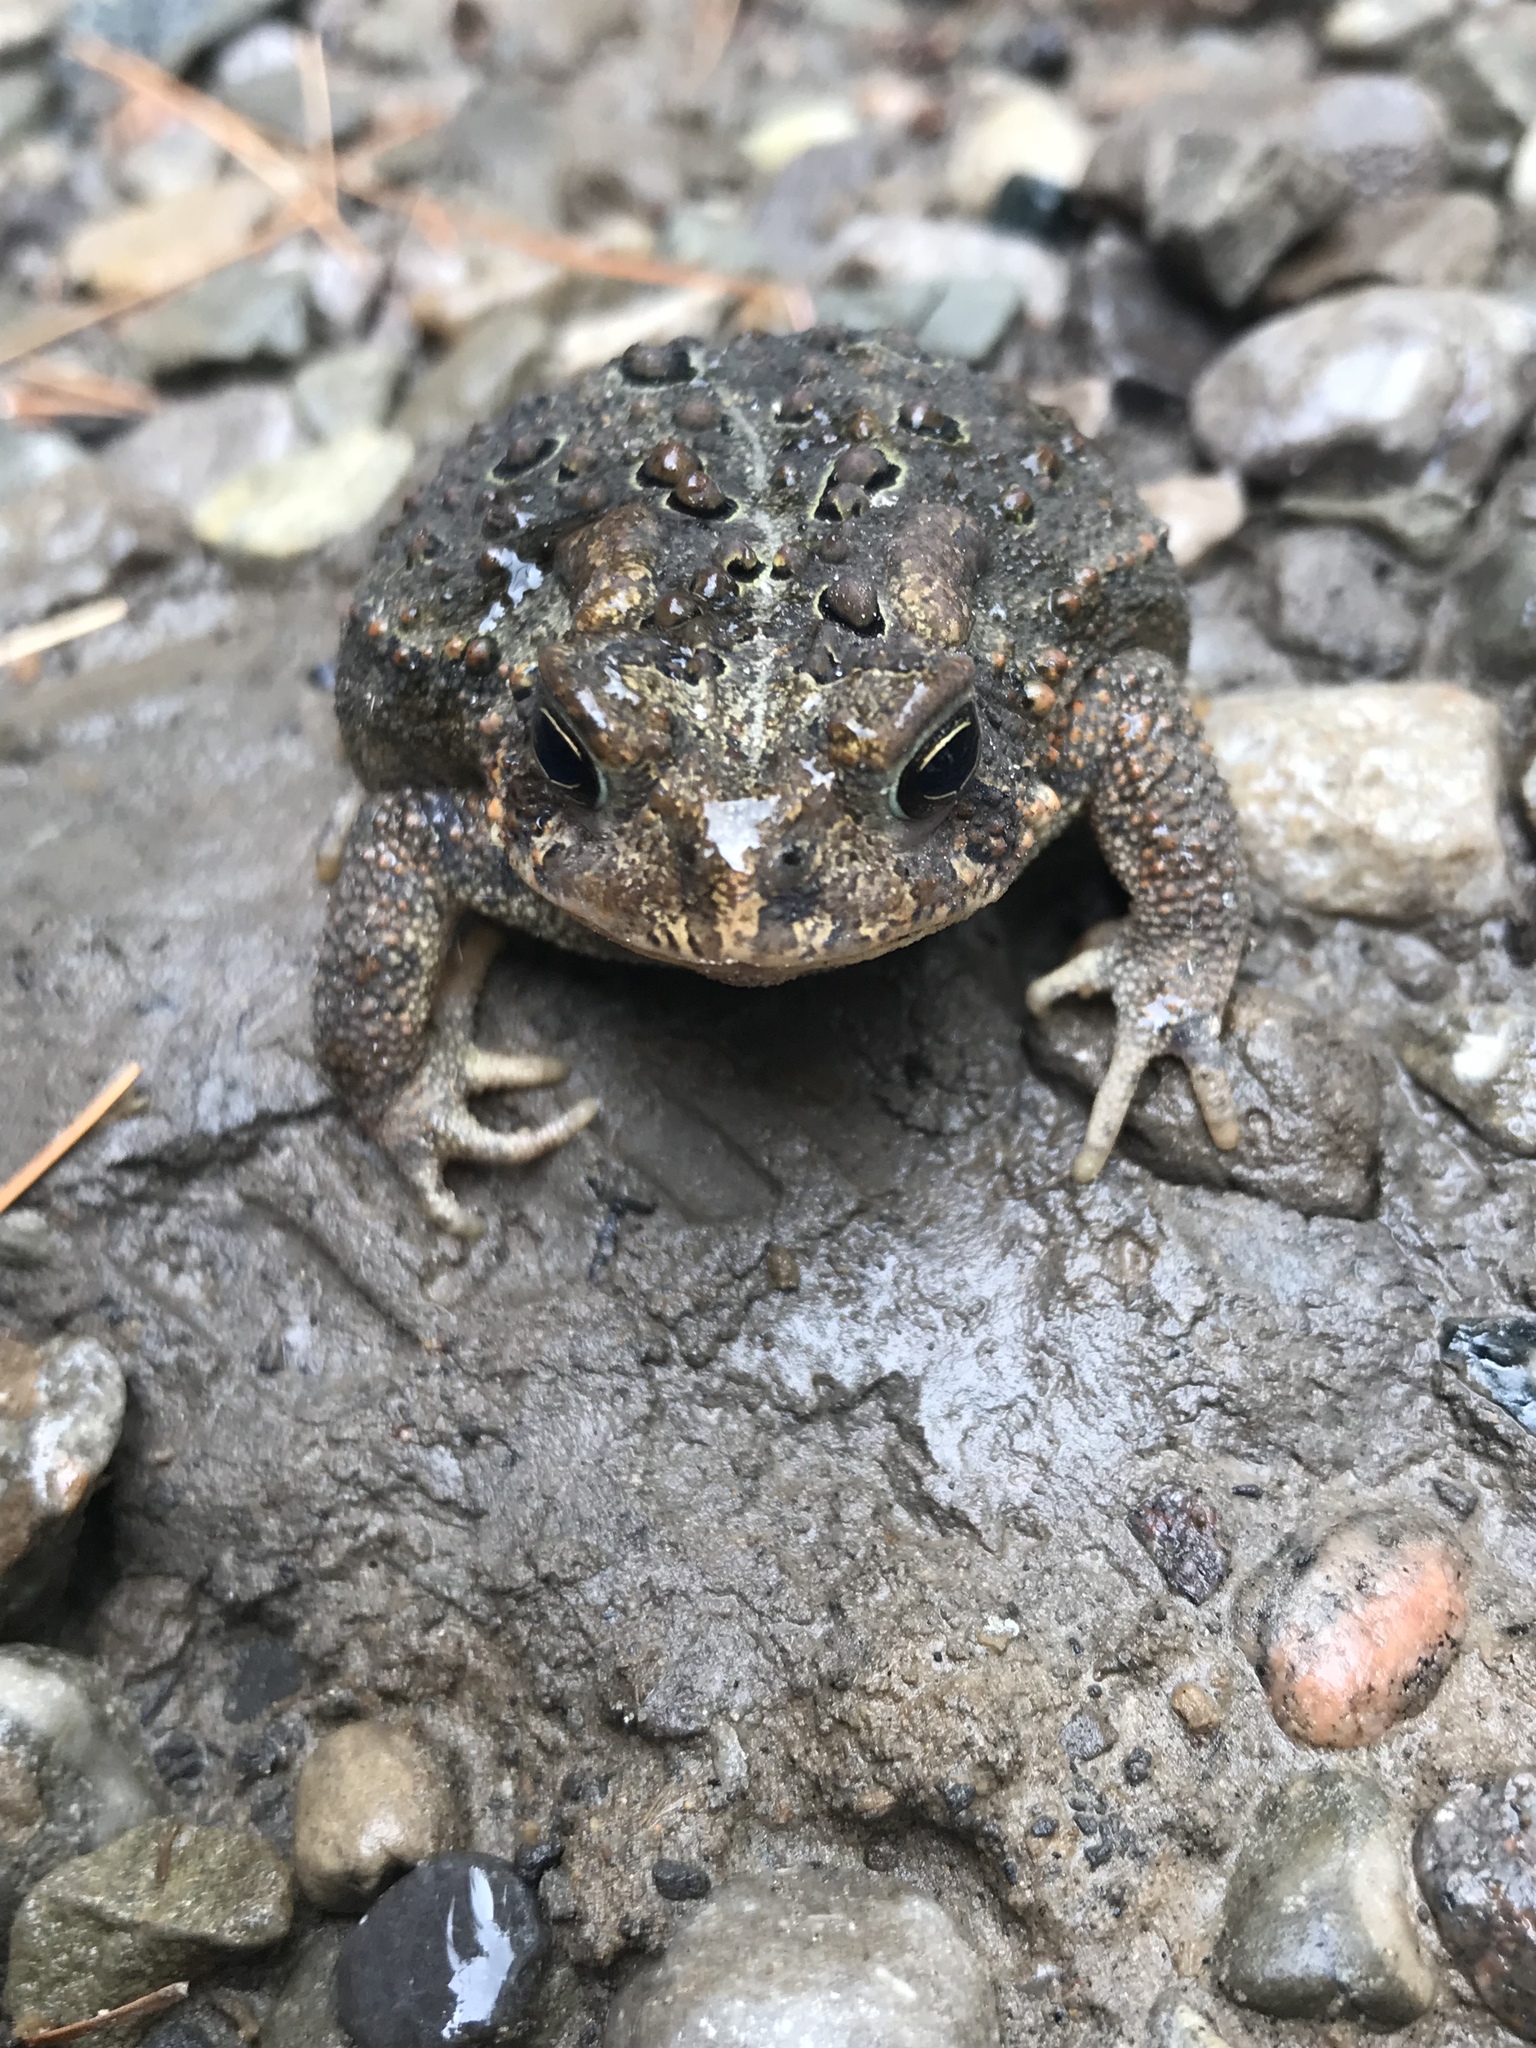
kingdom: Animalia
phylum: Chordata
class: Amphibia
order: Anura
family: Bufonidae
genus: Anaxyrus
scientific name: Anaxyrus americanus
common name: American toad
